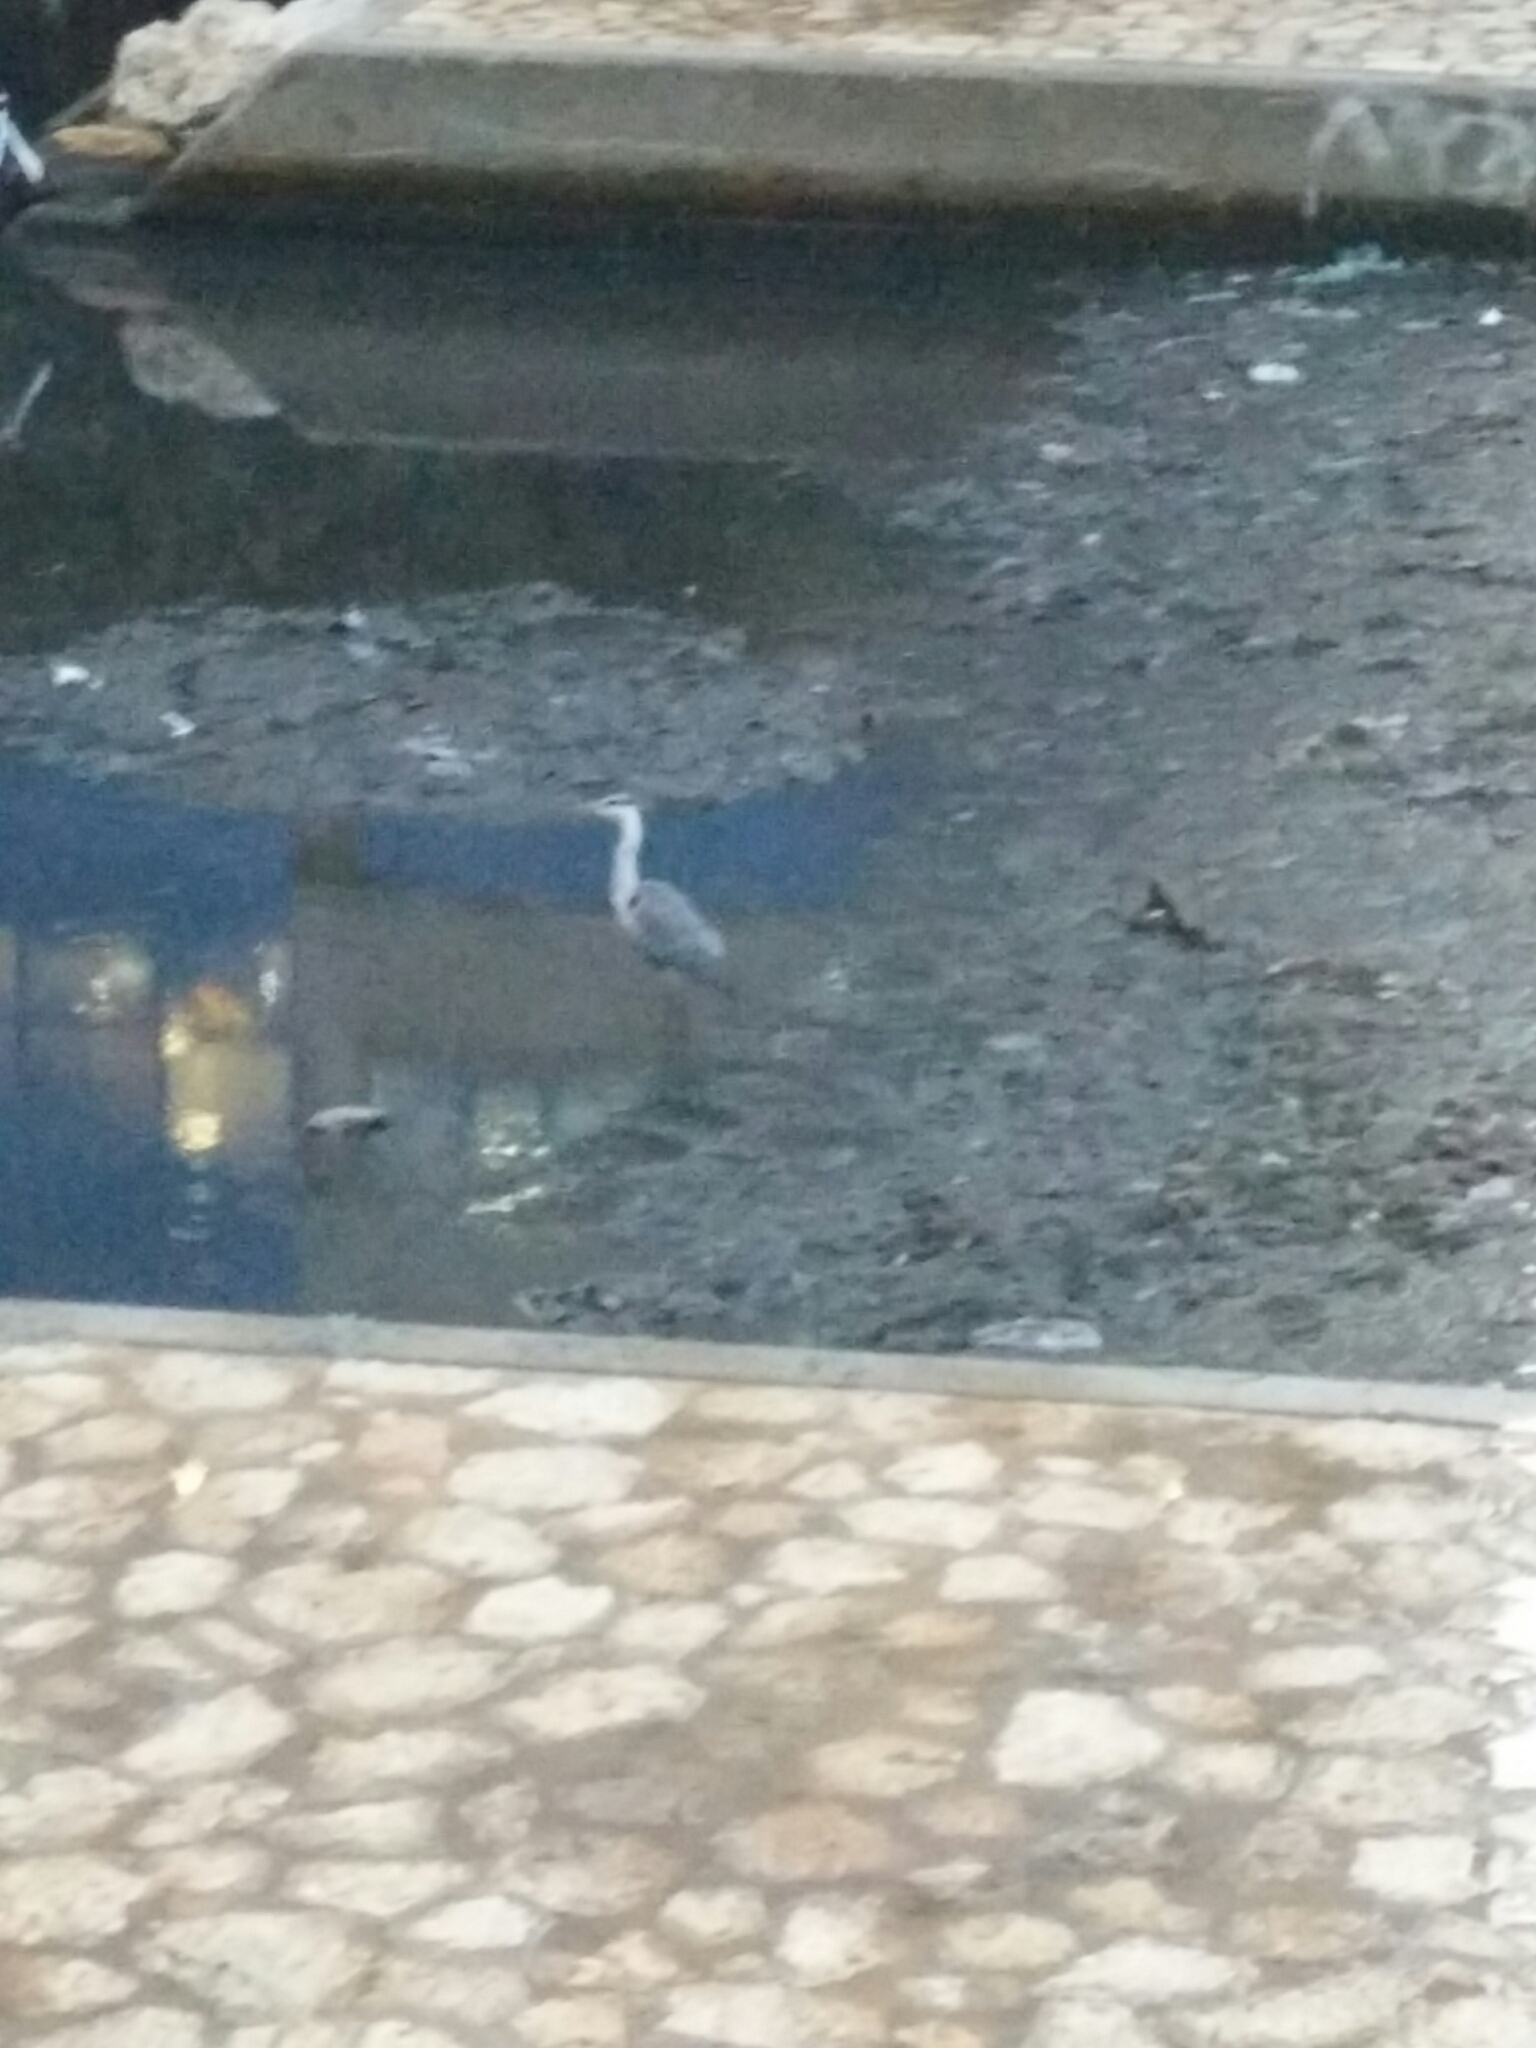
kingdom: Animalia
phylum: Chordata
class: Aves
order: Pelecaniformes
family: Ardeidae
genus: Ardea
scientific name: Ardea cinerea
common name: Grey heron
